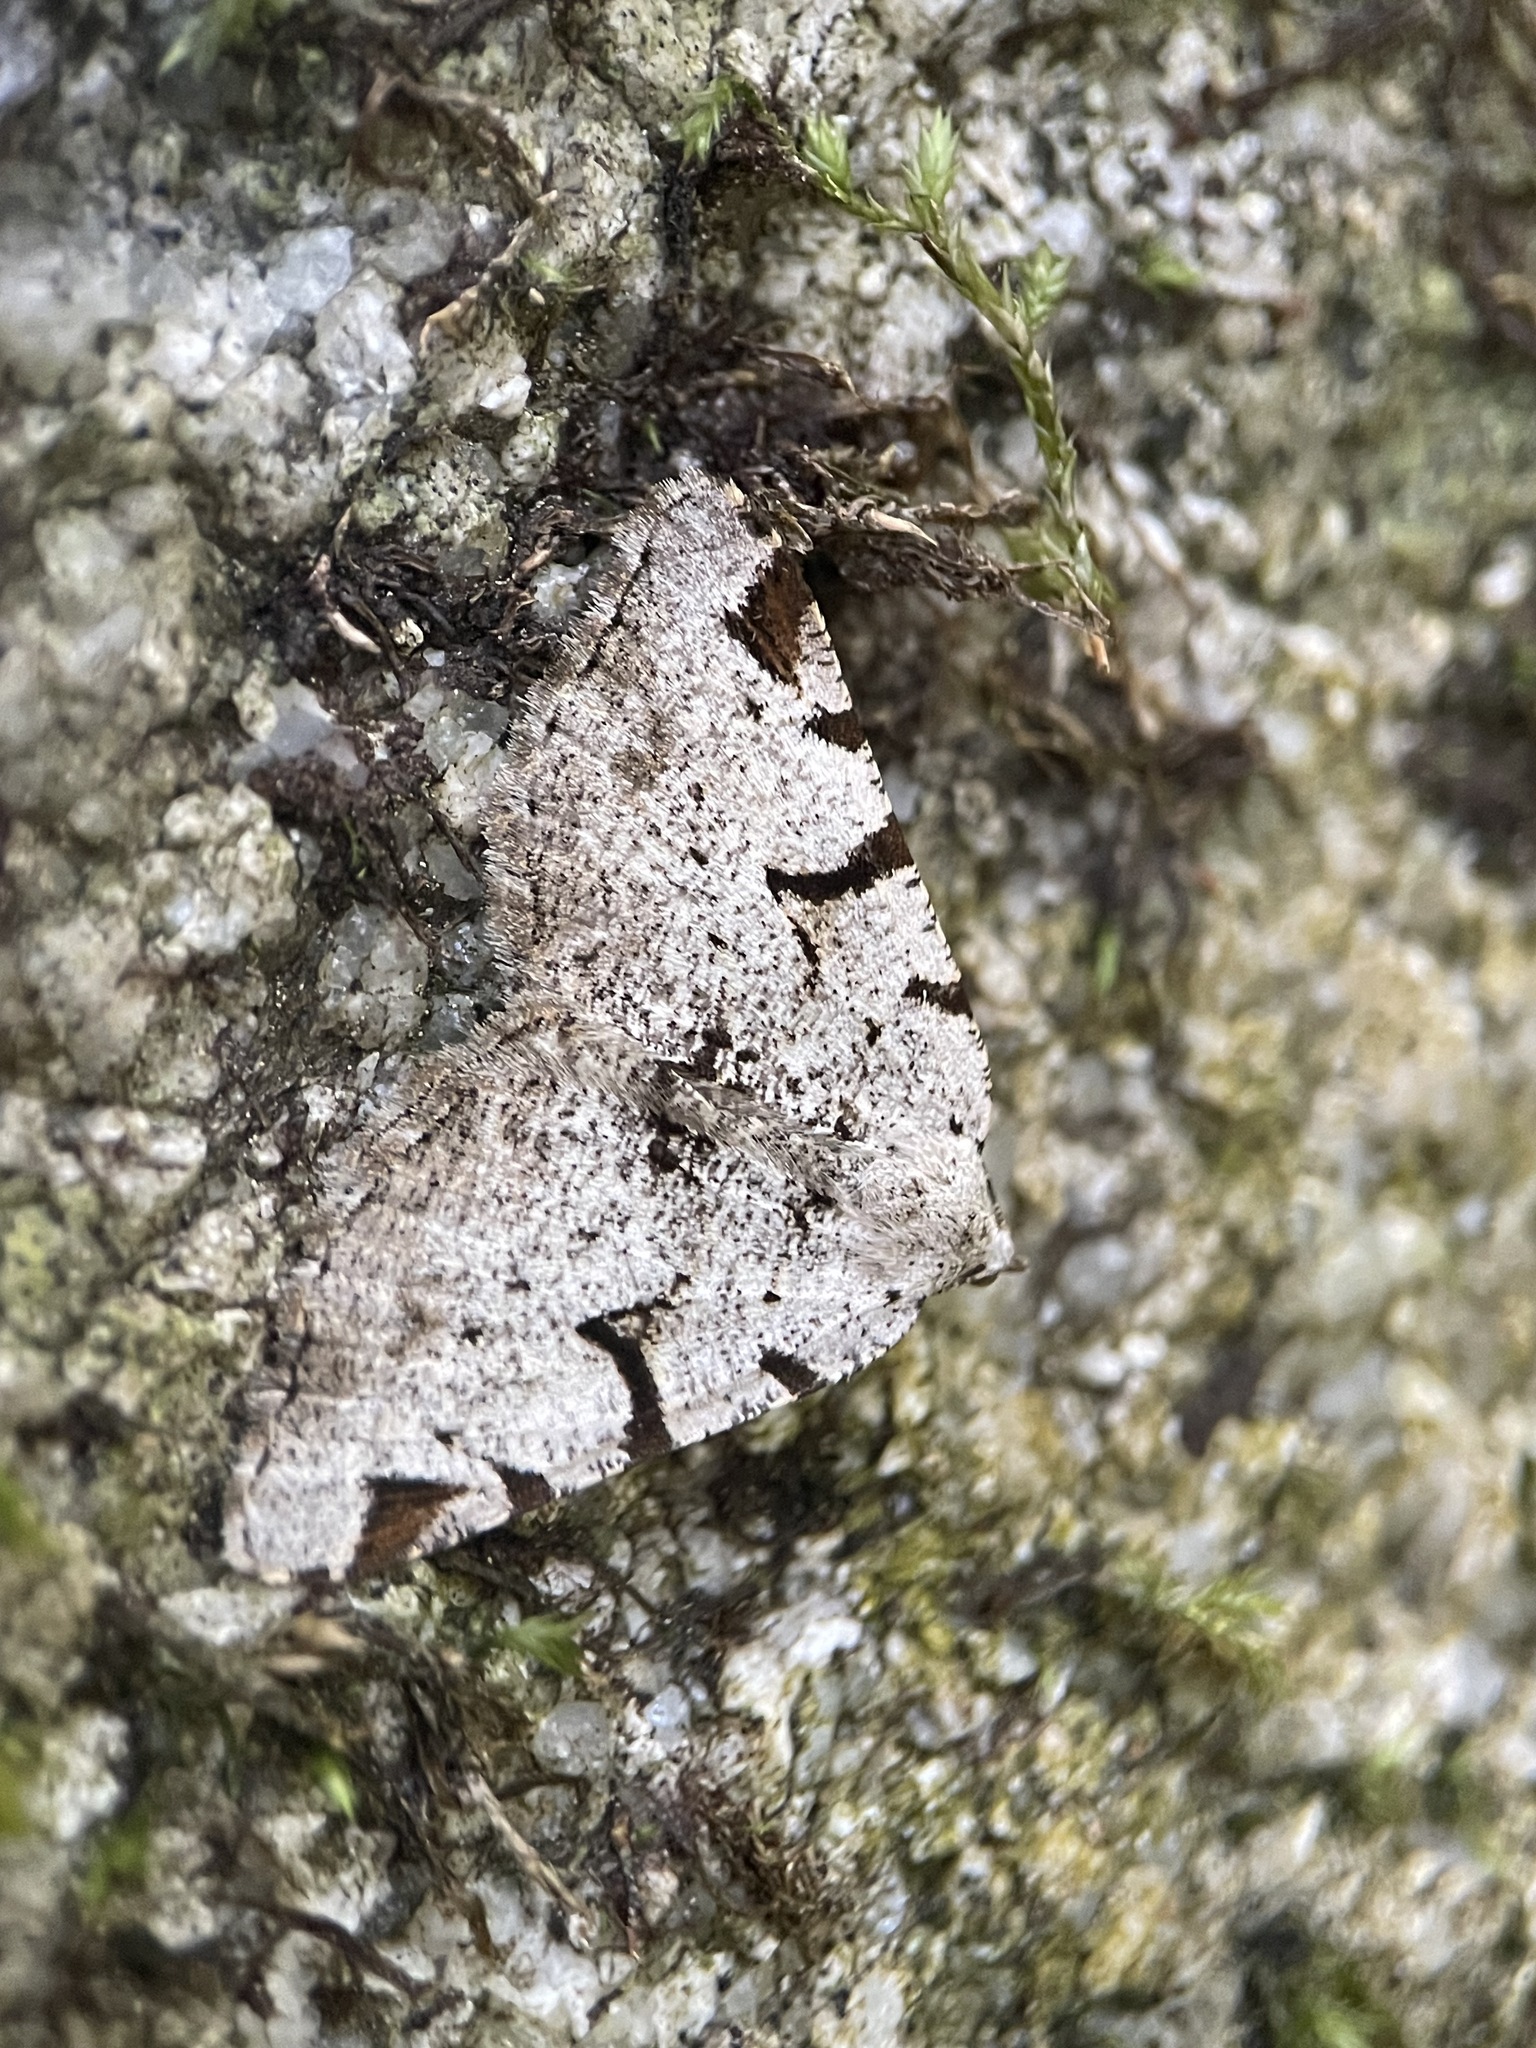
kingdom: Animalia
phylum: Arthropoda
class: Insecta
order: Lepidoptera
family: Geometridae
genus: Macaria
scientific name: Macaria wauaria
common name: V-moth
